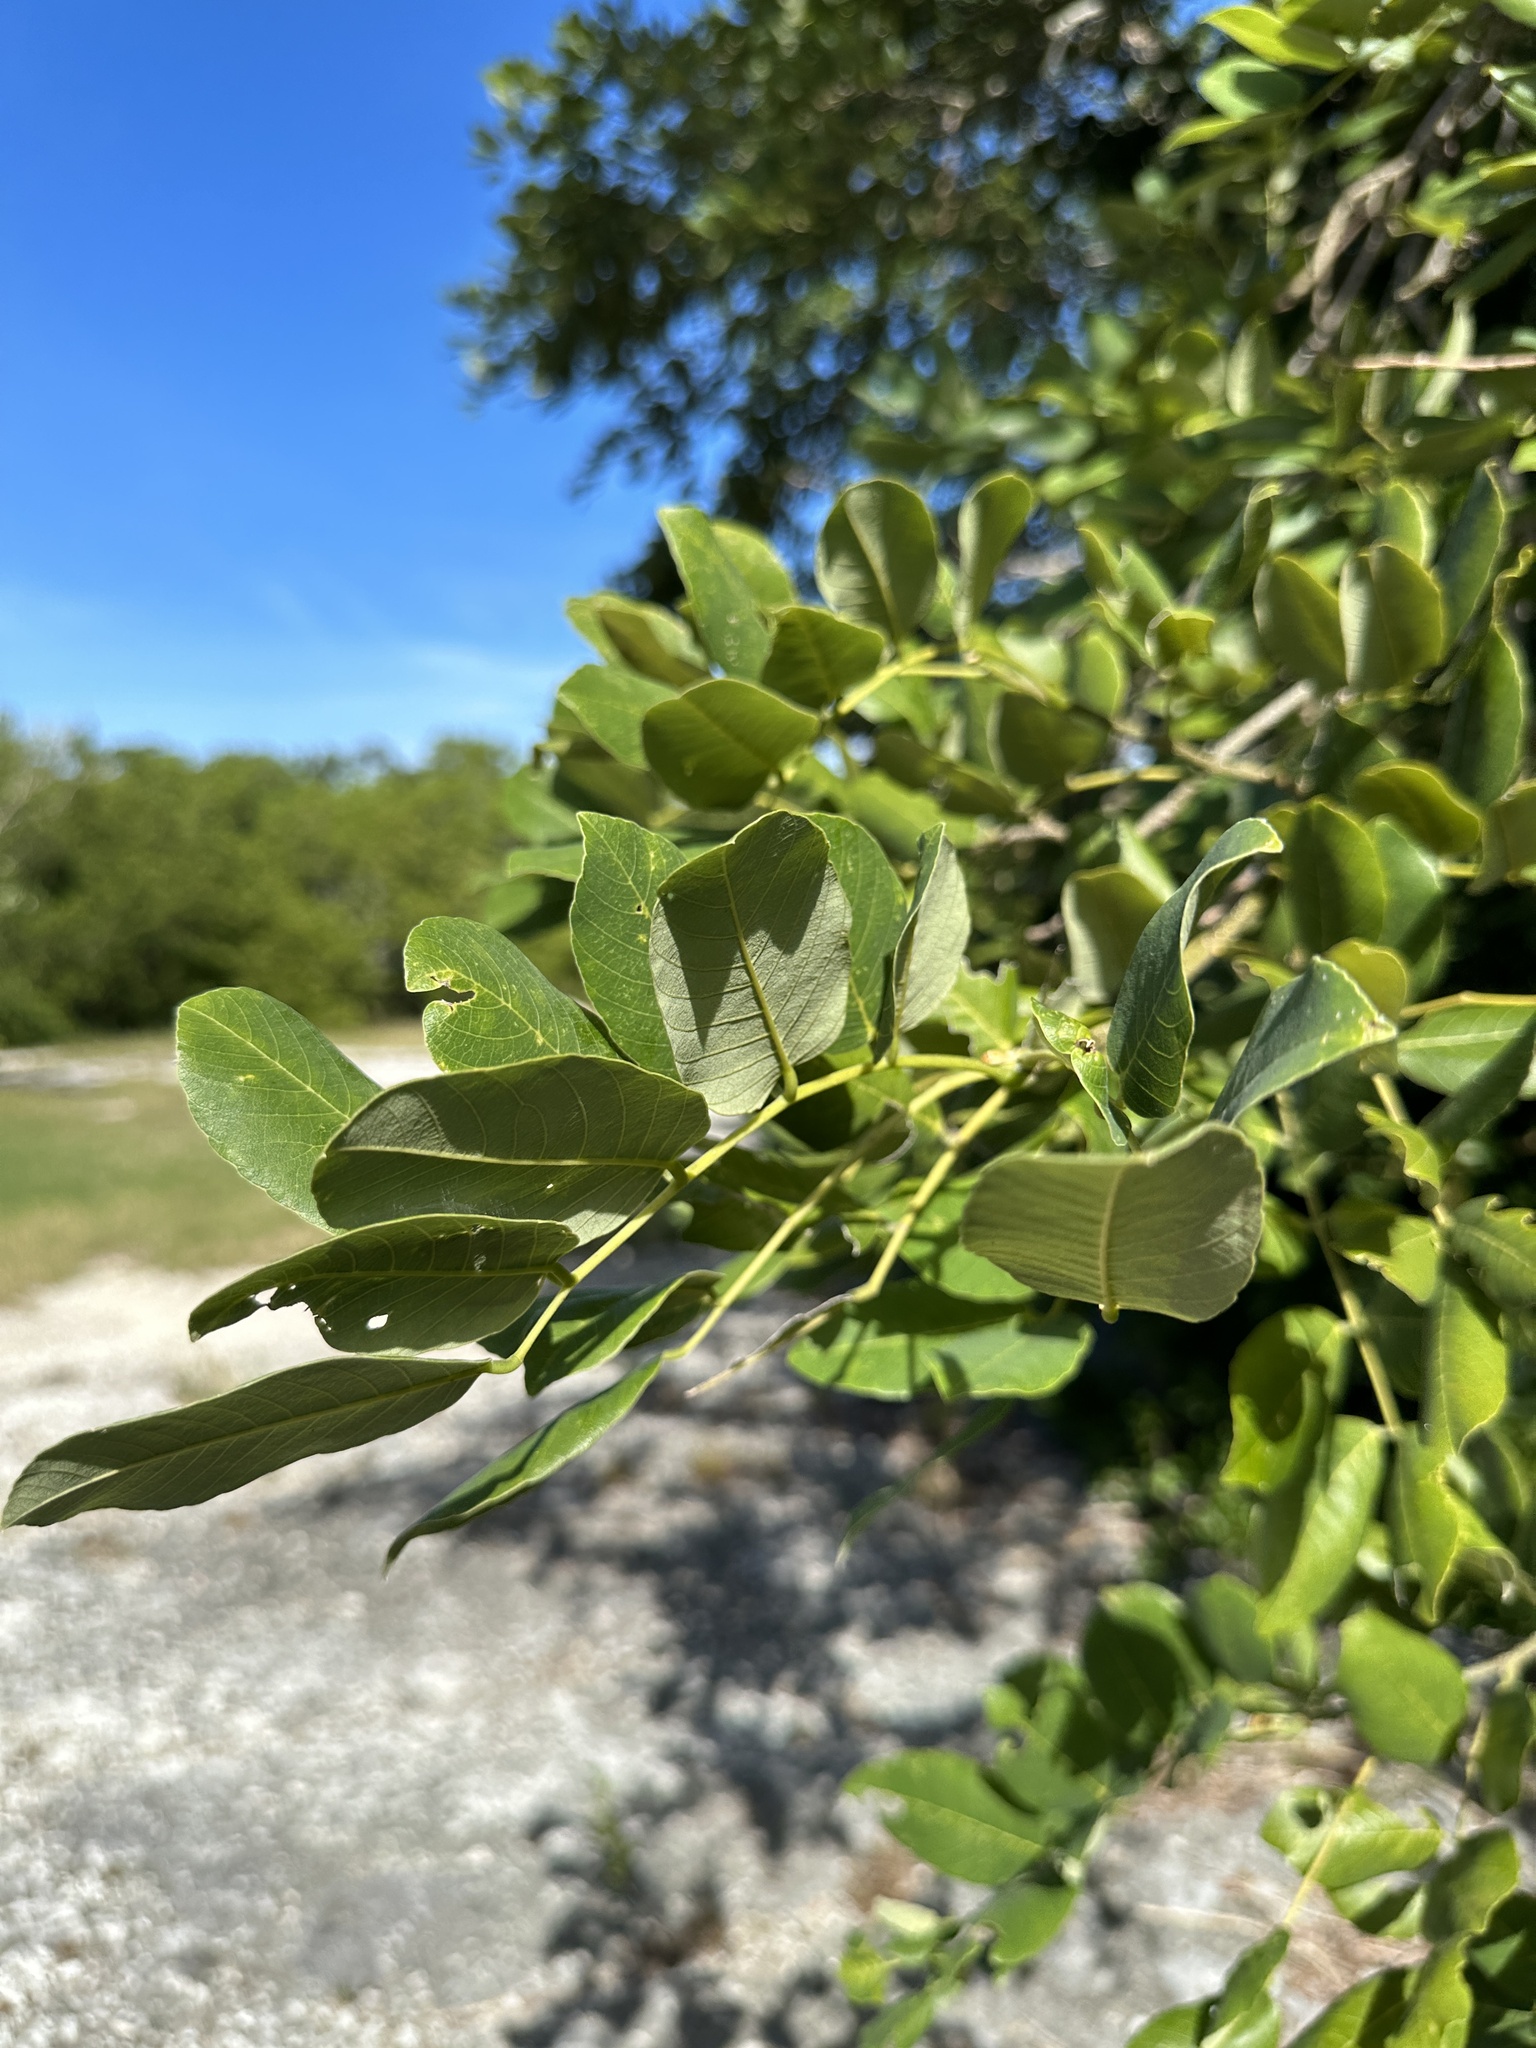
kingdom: Plantae
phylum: Tracheophyta
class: Magnoliopsida
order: Fabales
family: Fabaceae
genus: Piscidia
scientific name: Piscidia piscipula
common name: Florida fishpoison tree
